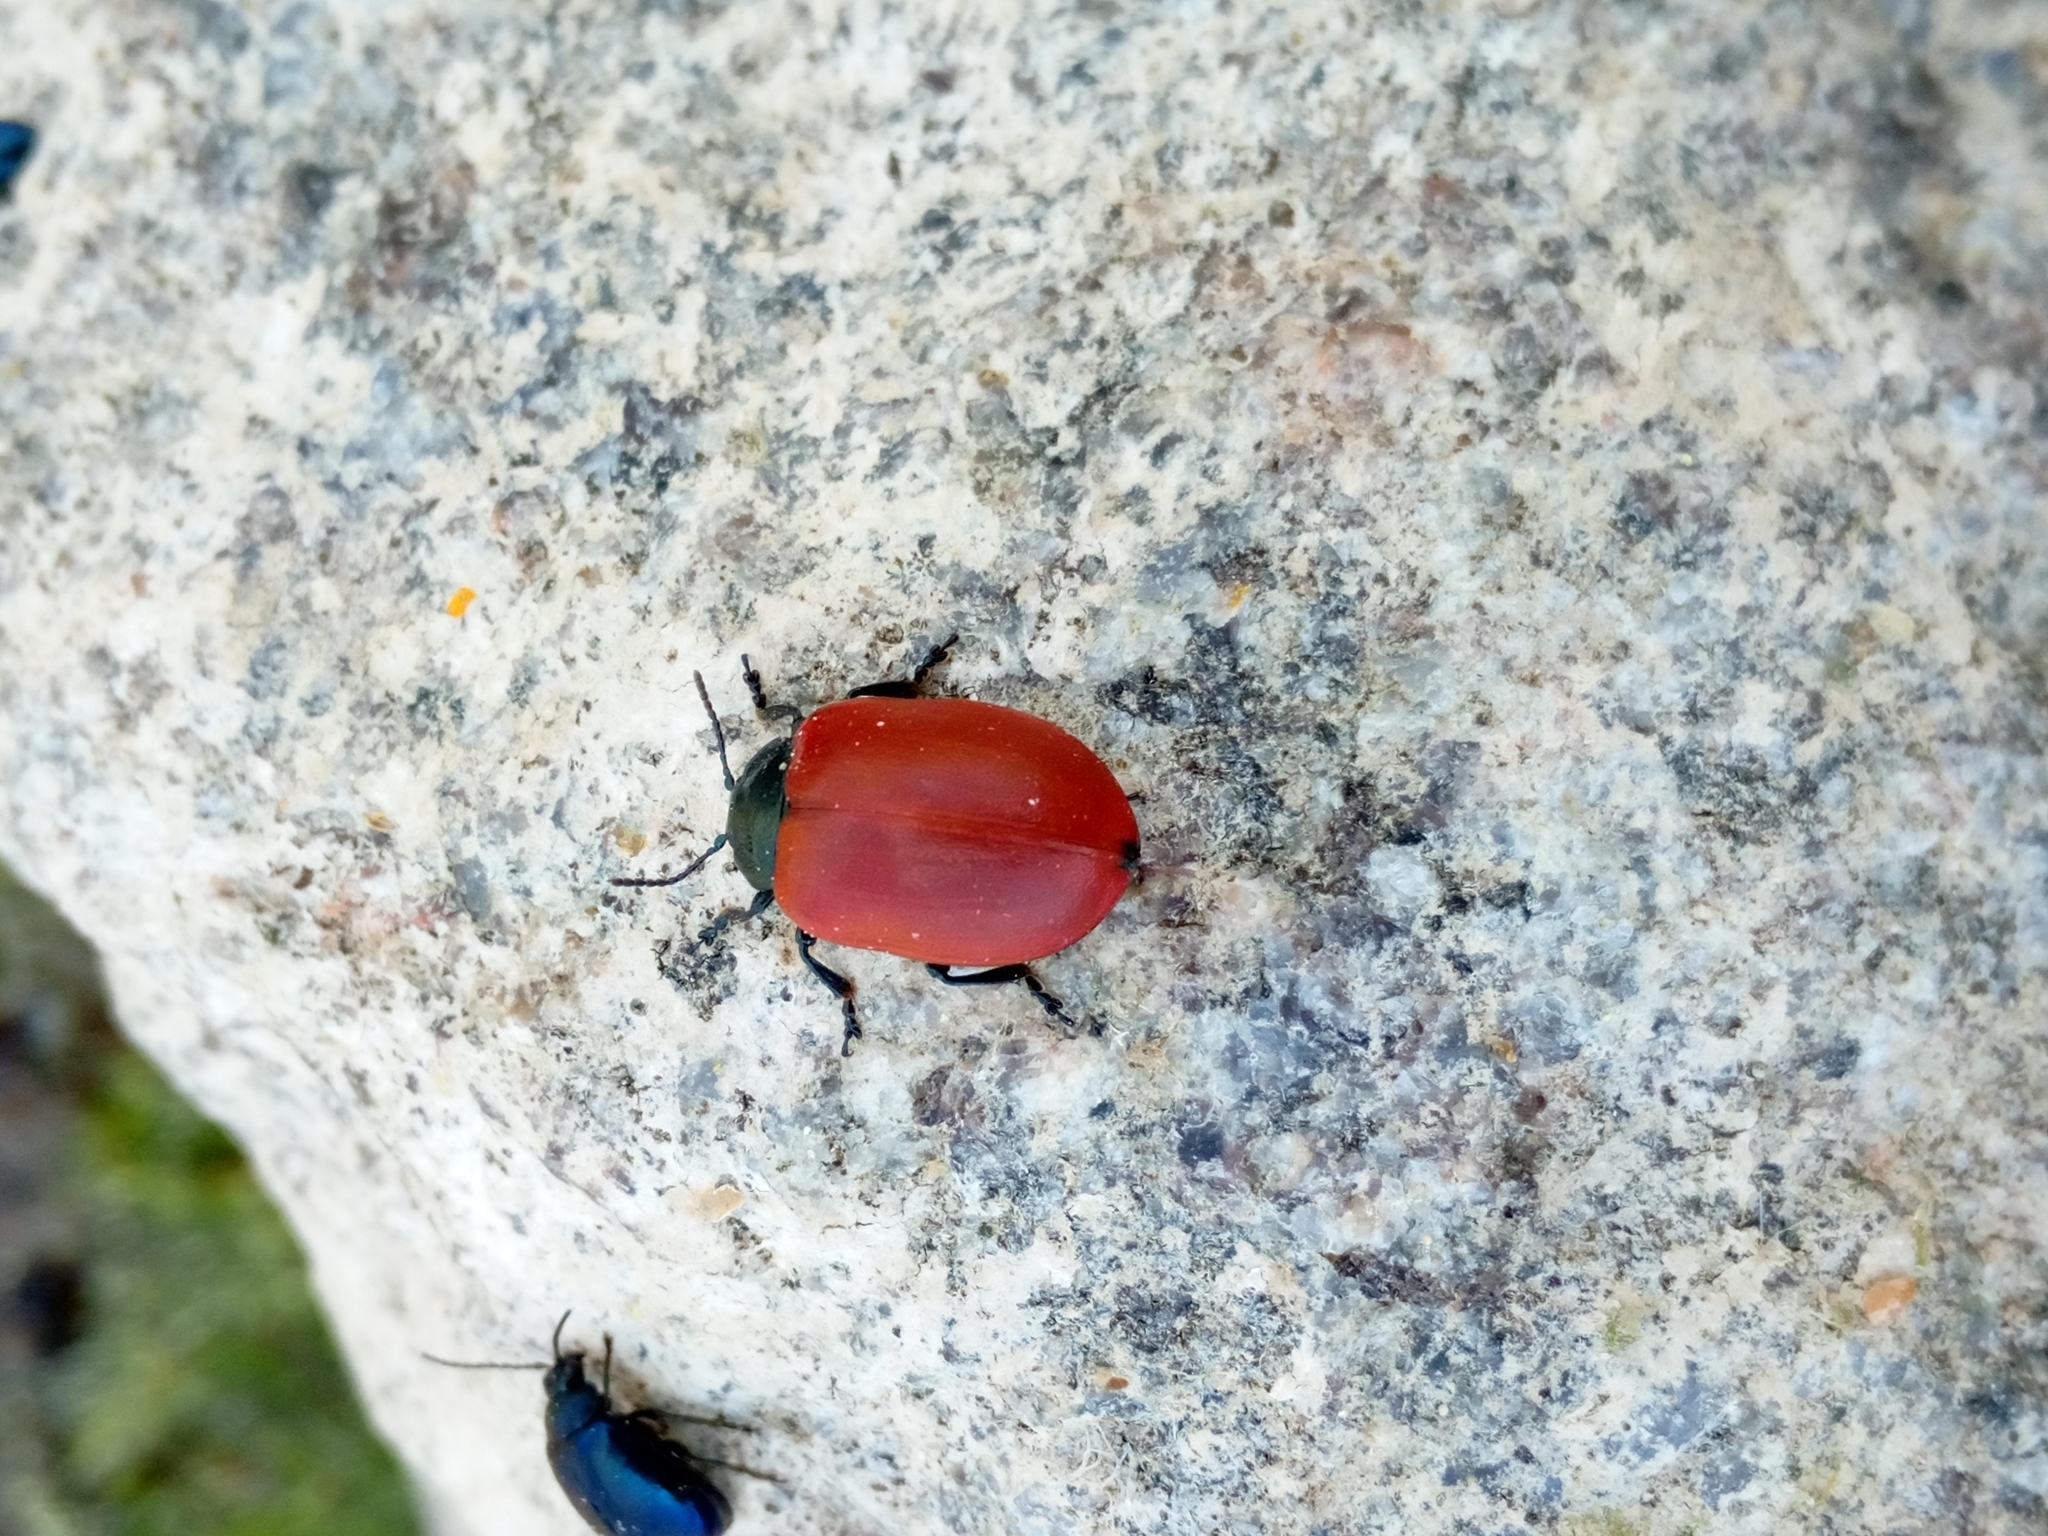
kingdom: Animalia
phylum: Arthropoda
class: Insecta
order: Coleoptera
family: Chrysomelidae
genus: Chrysomela
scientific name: Chrysomela populi
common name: Red poplar leaf beetle
